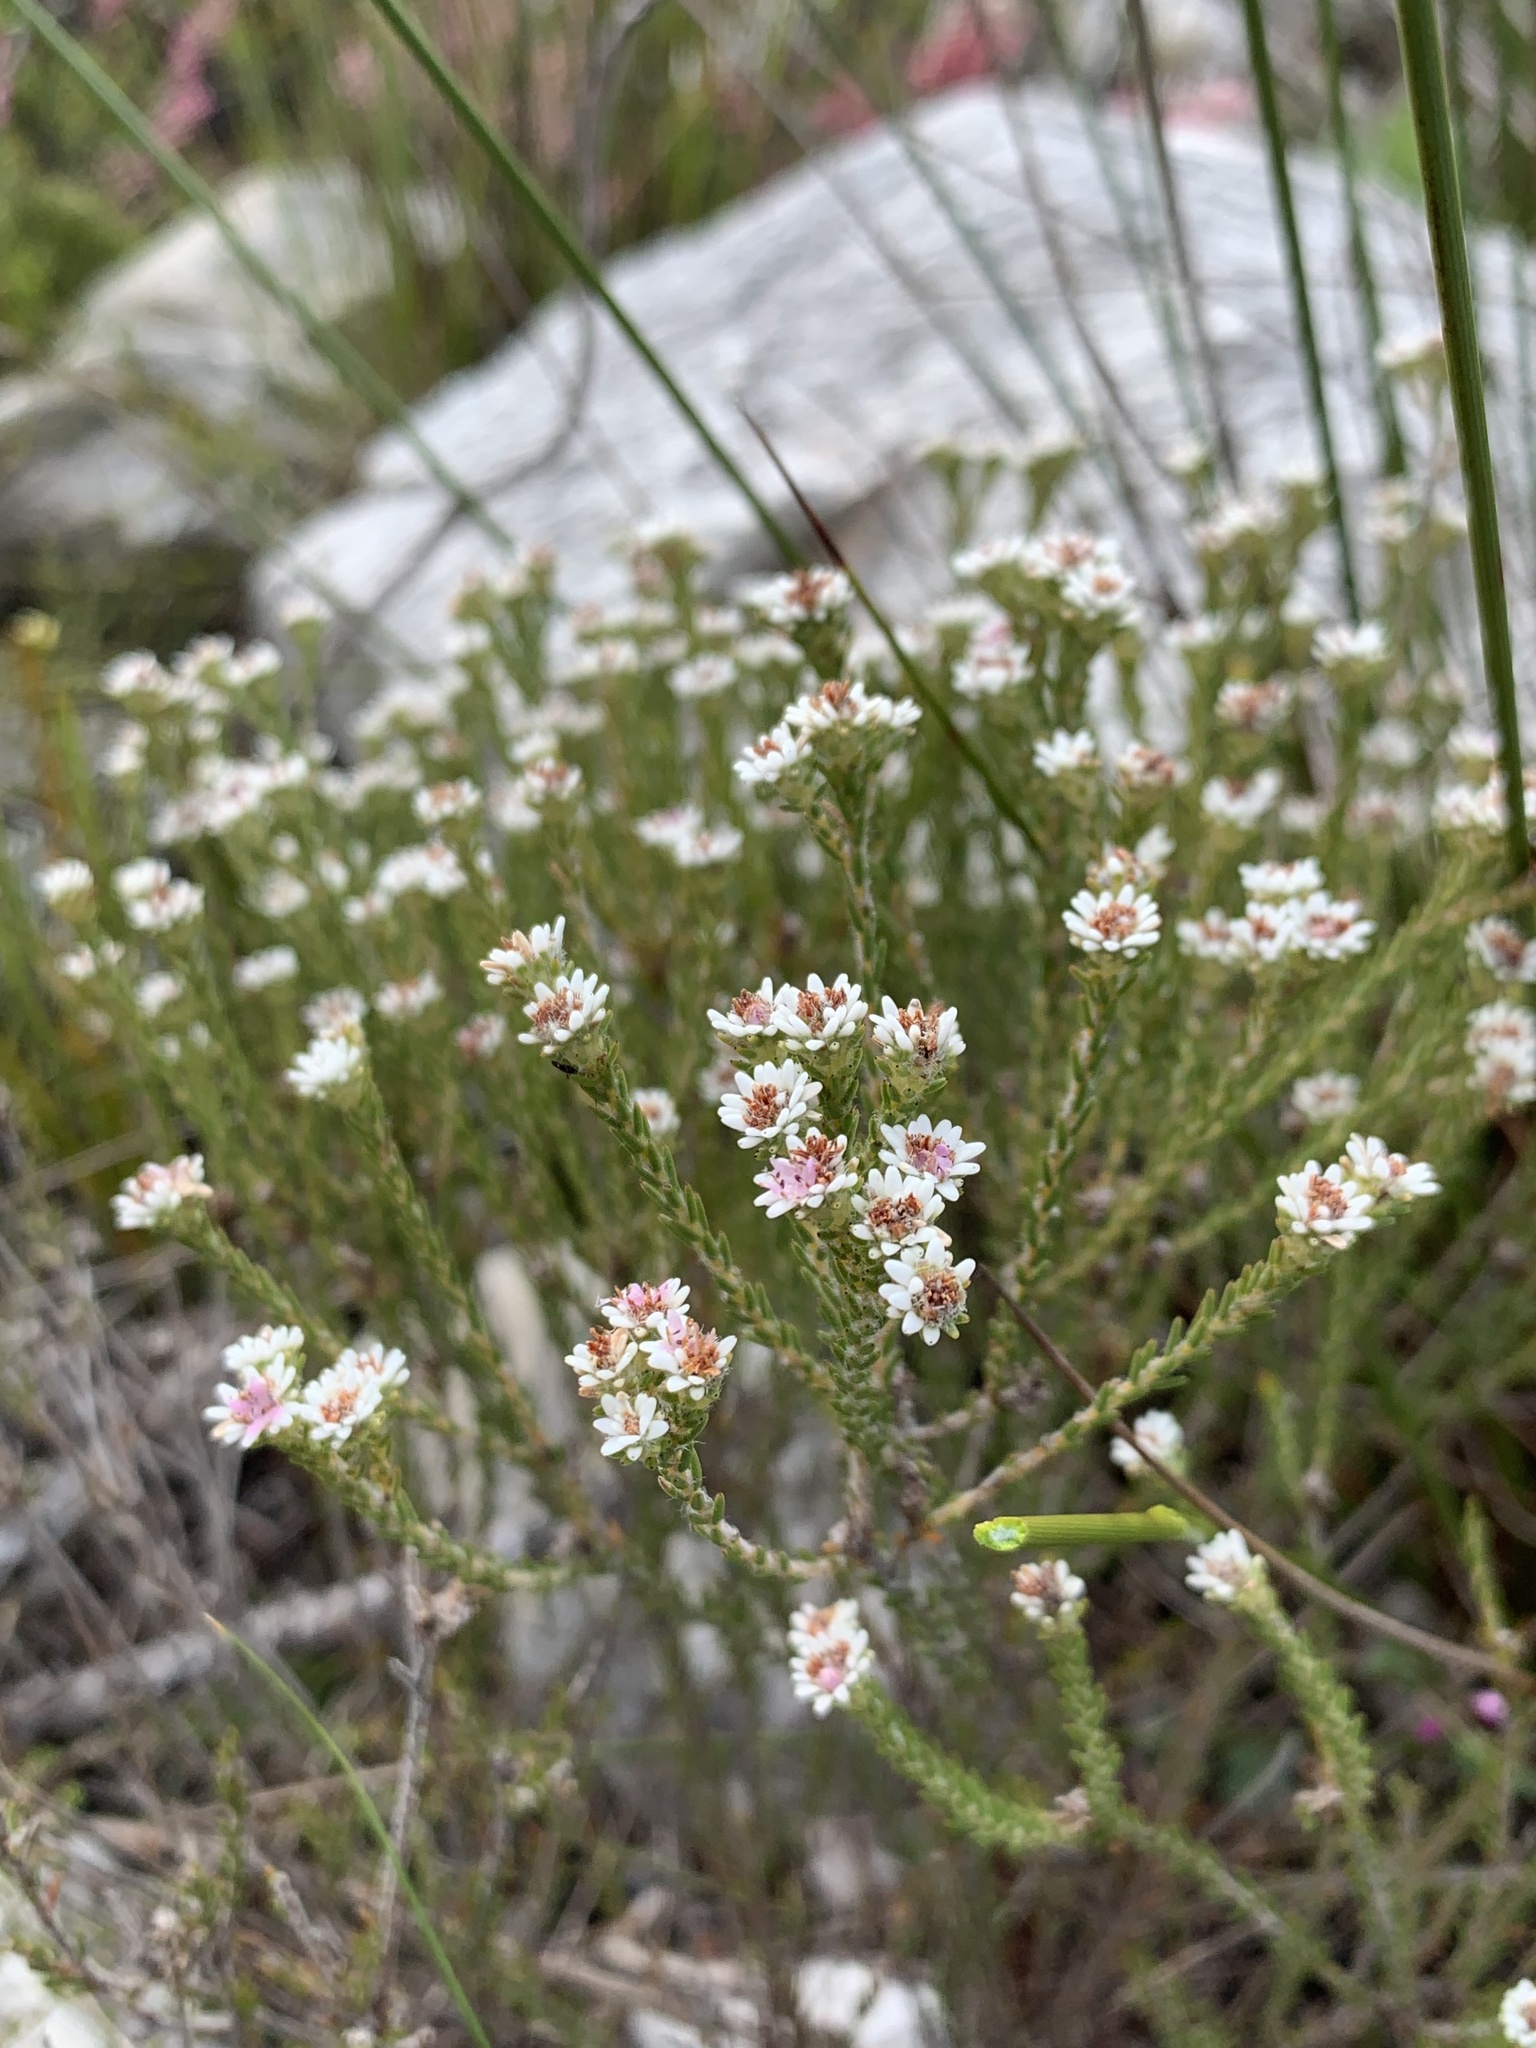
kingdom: Plantae
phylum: Tracheophyta
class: Magnoliopsida
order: Bruniales
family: Bruniaceae
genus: Staavia
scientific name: Staavia radiata
